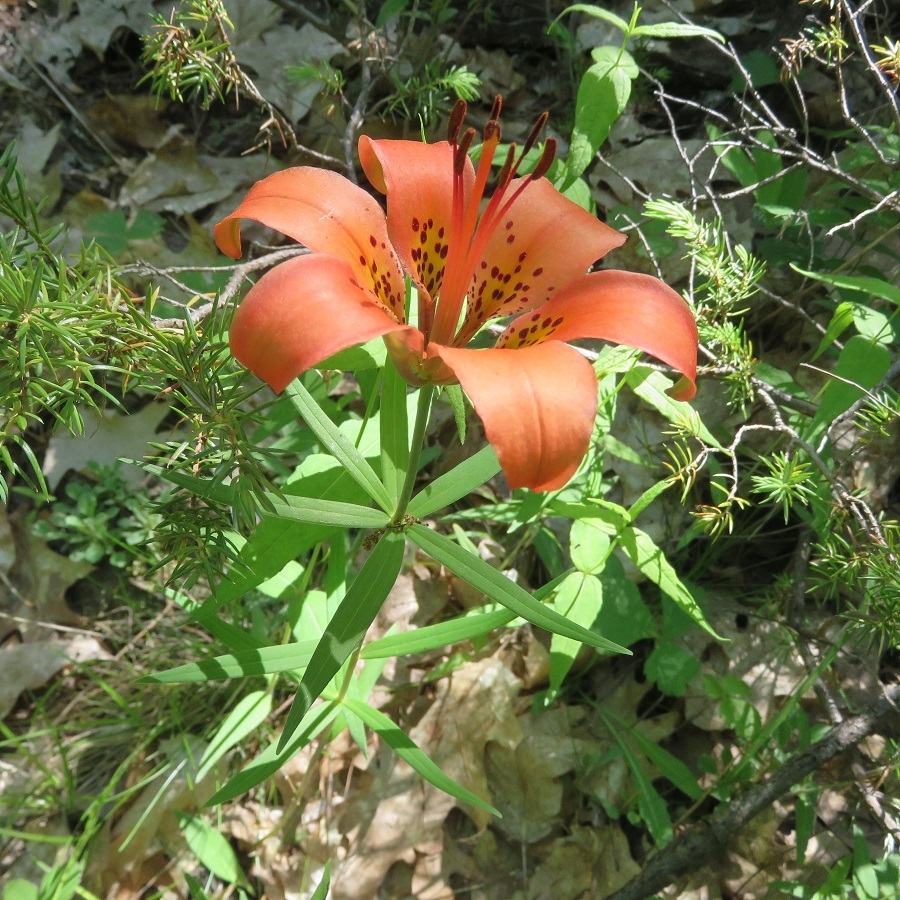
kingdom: Plantae
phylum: Tracheophyta
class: Liliopsida
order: Liliales
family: Liliaceae
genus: Lilium
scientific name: Lilium philadelphicum
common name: Red lily
